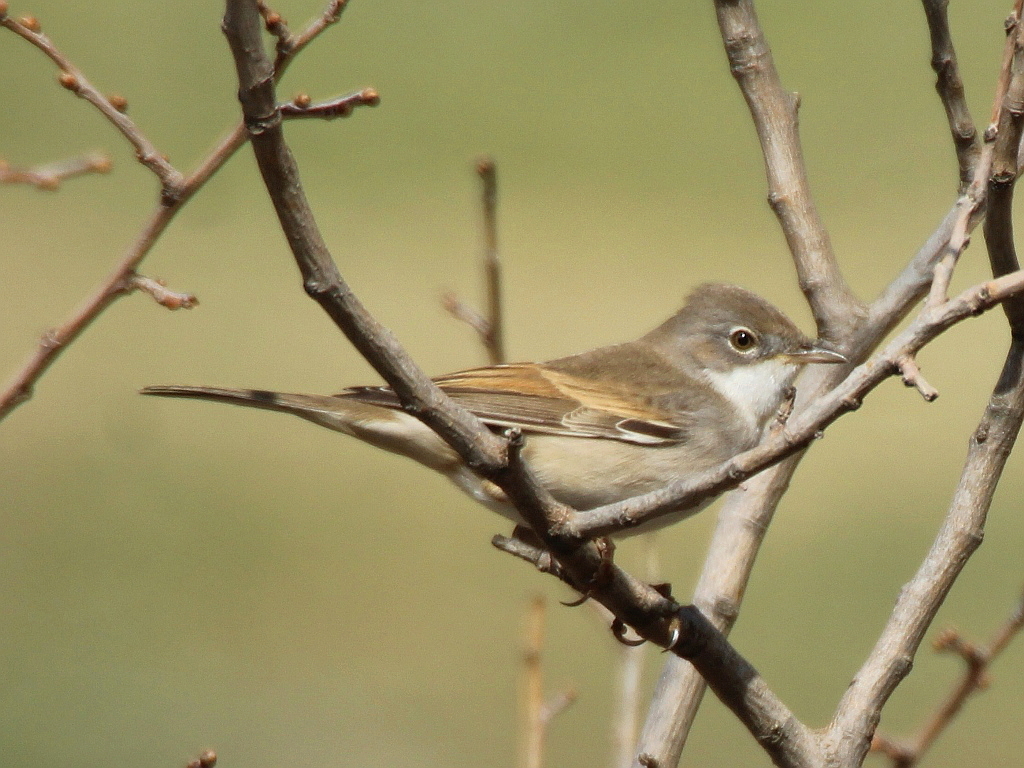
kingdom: Animalia
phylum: Chordata
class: Aves
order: Passeriformes
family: Sylviidae
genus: Sylvia
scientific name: Sylvia communis
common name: Common whitethroat
